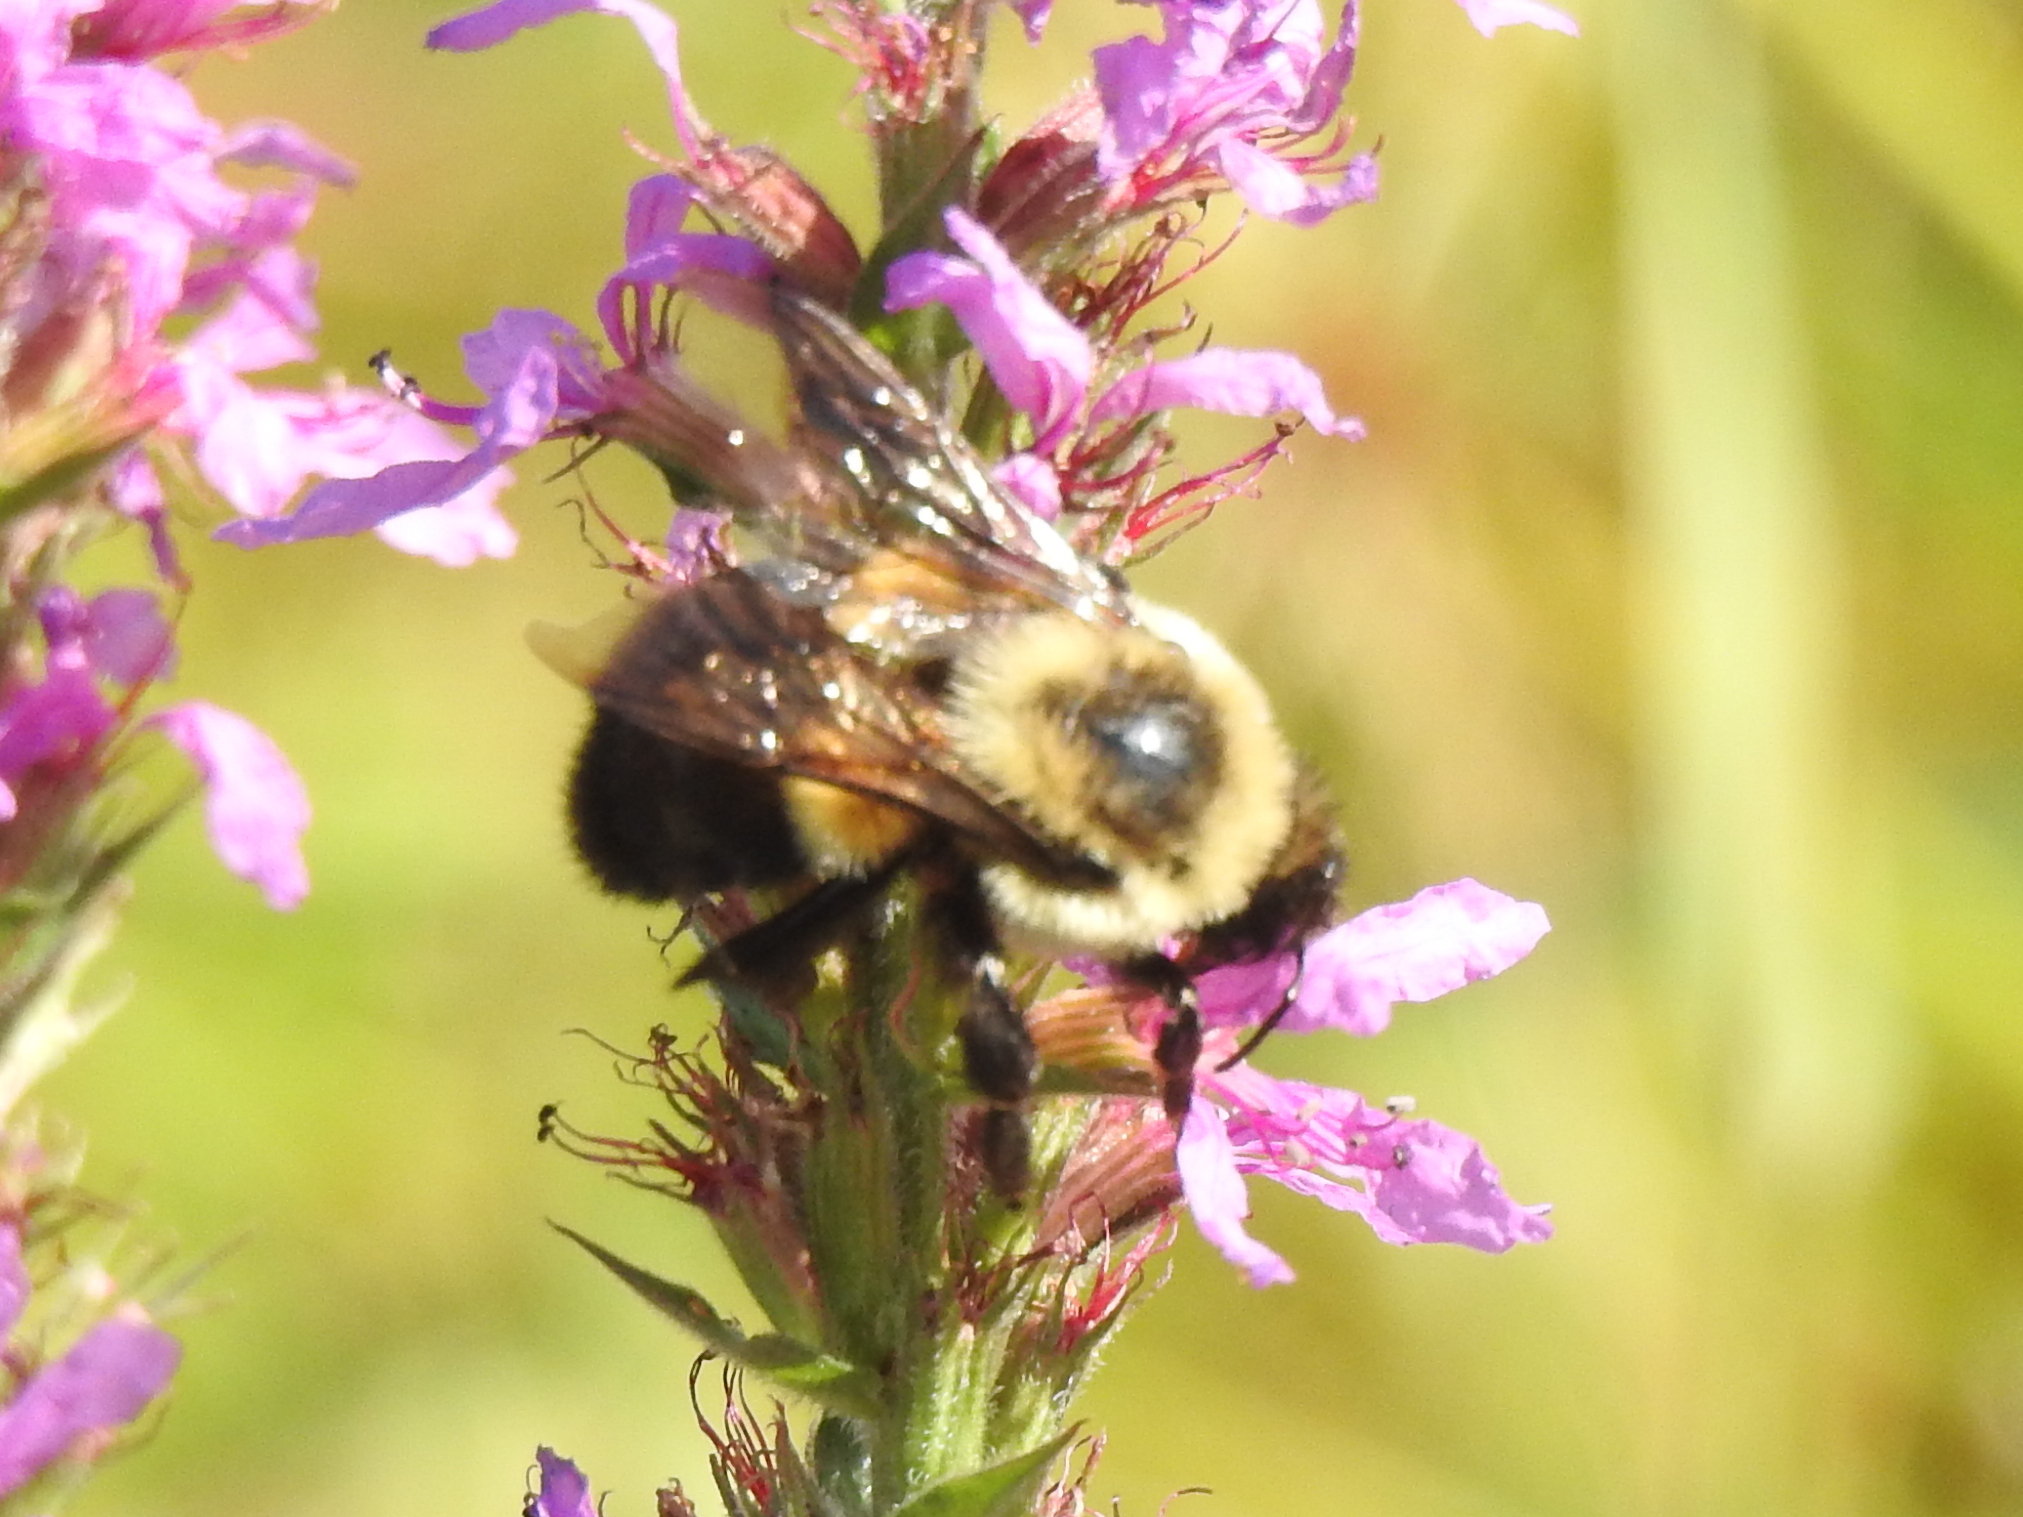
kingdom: Animalia
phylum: Arthropoda
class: Insecta
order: Hymenoptera
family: Apidae
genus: Bombus
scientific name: Bombus impatiens
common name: Common eastern bumble bee
